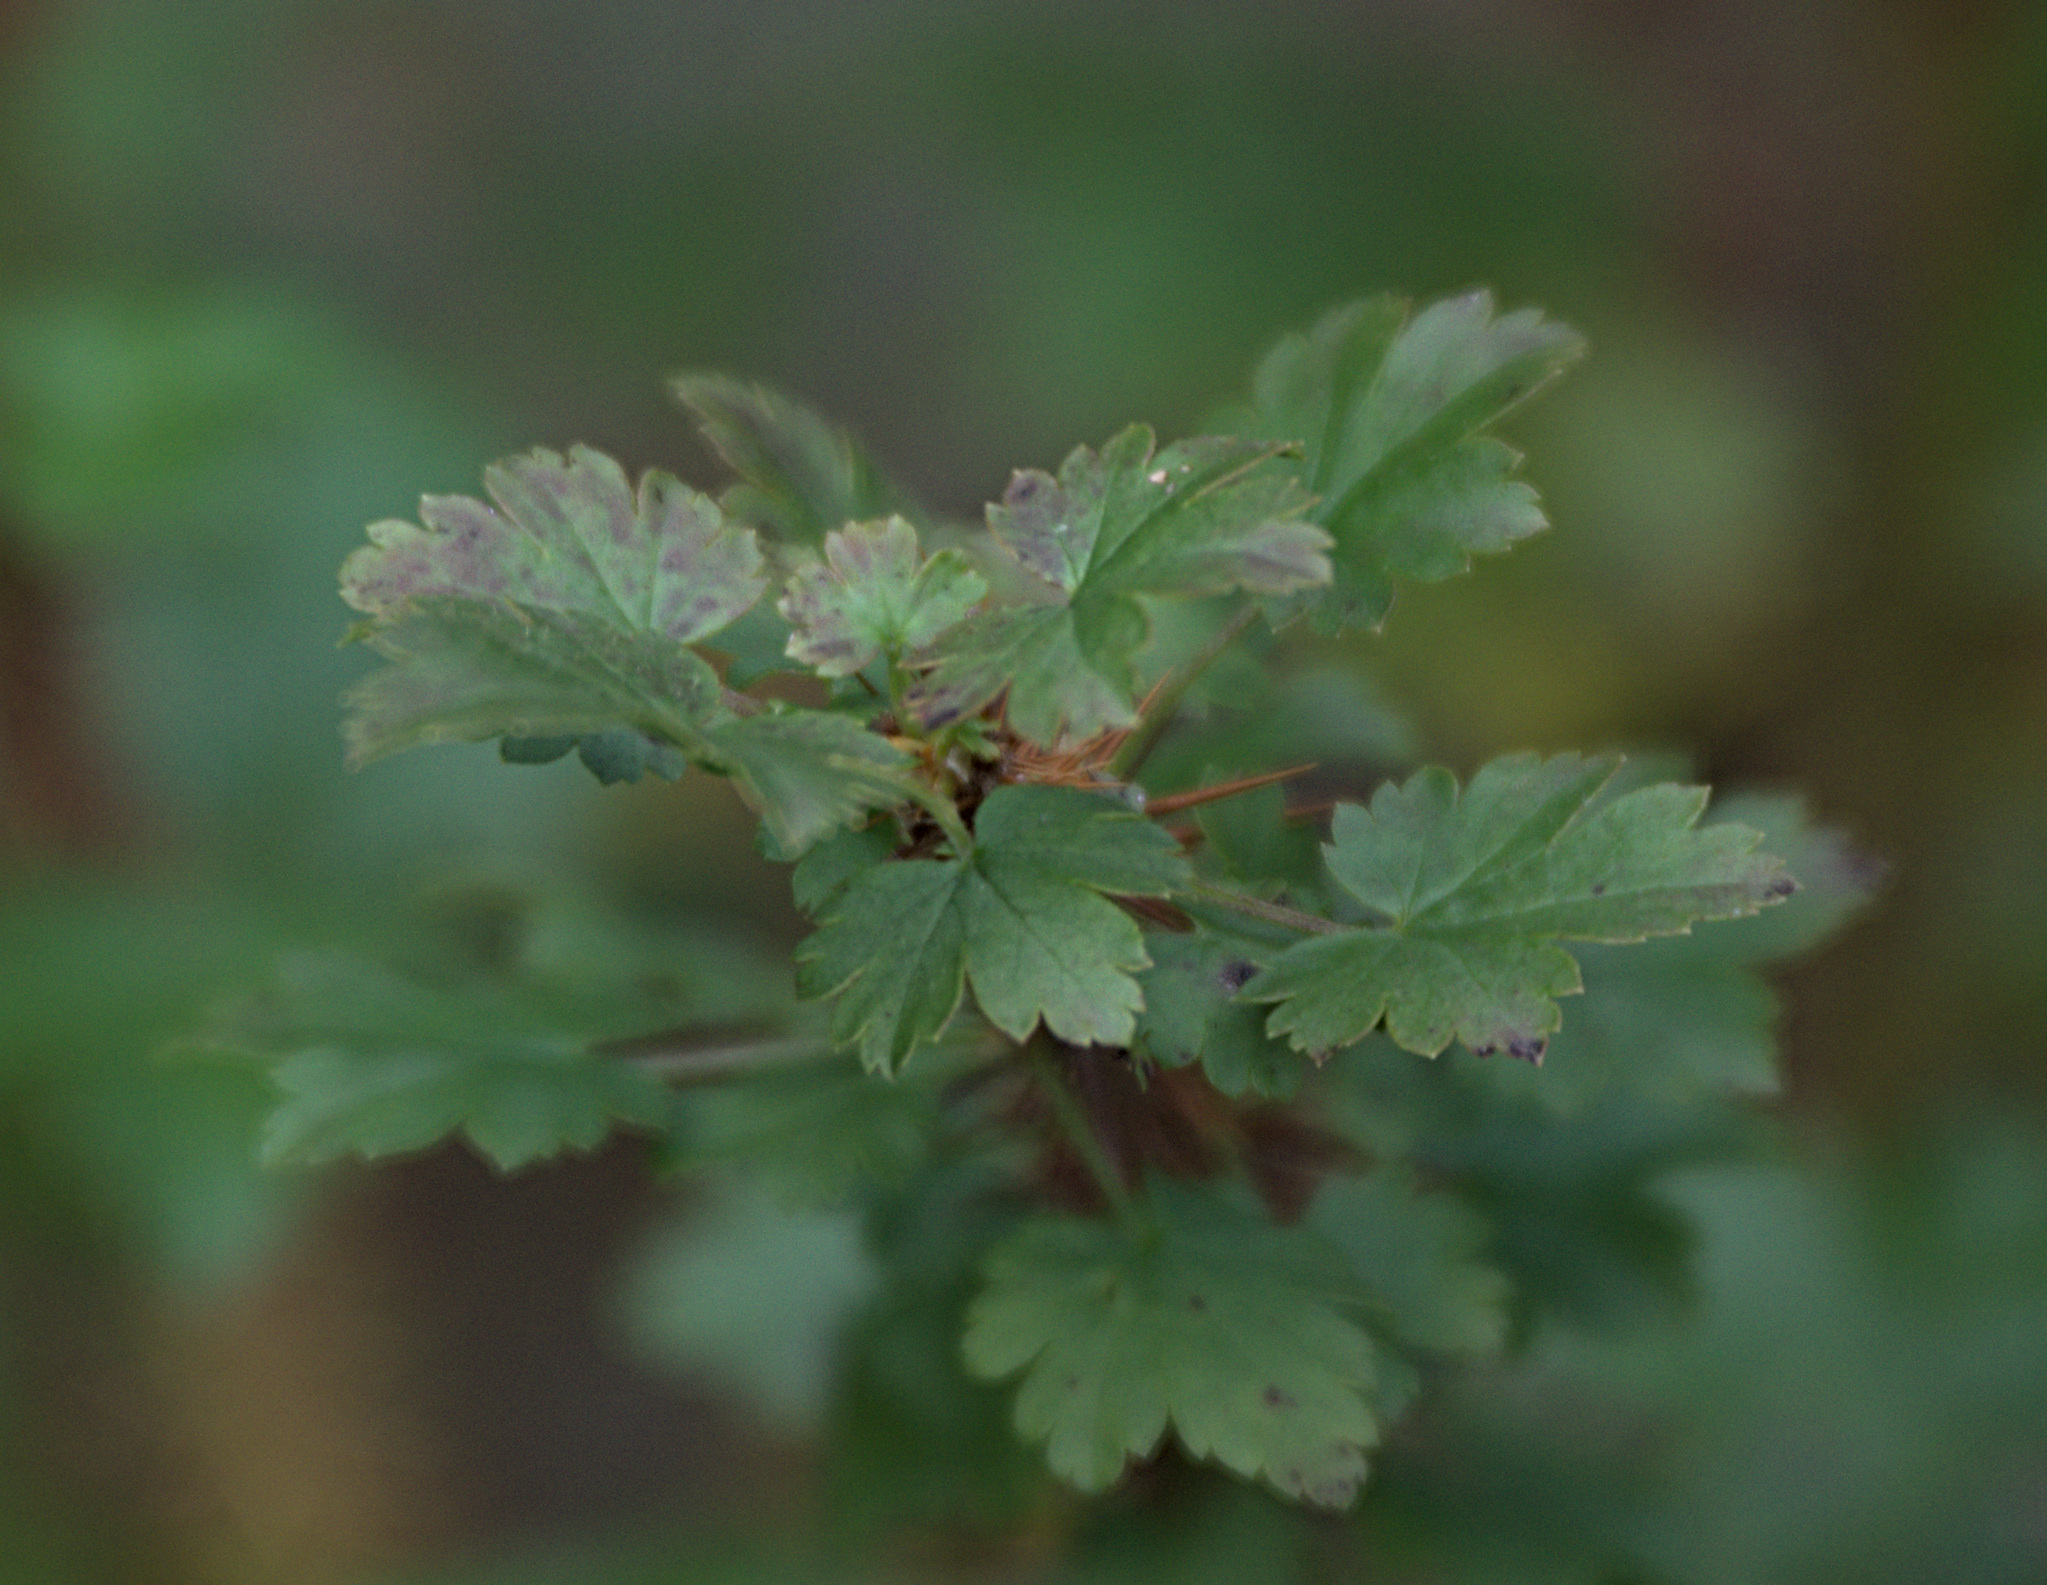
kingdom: Plantae
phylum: Tracheophyta
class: Magnoliopsida
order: Saxifragales
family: Grossulariaceae
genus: Ribes
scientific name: Ribes aciculare
